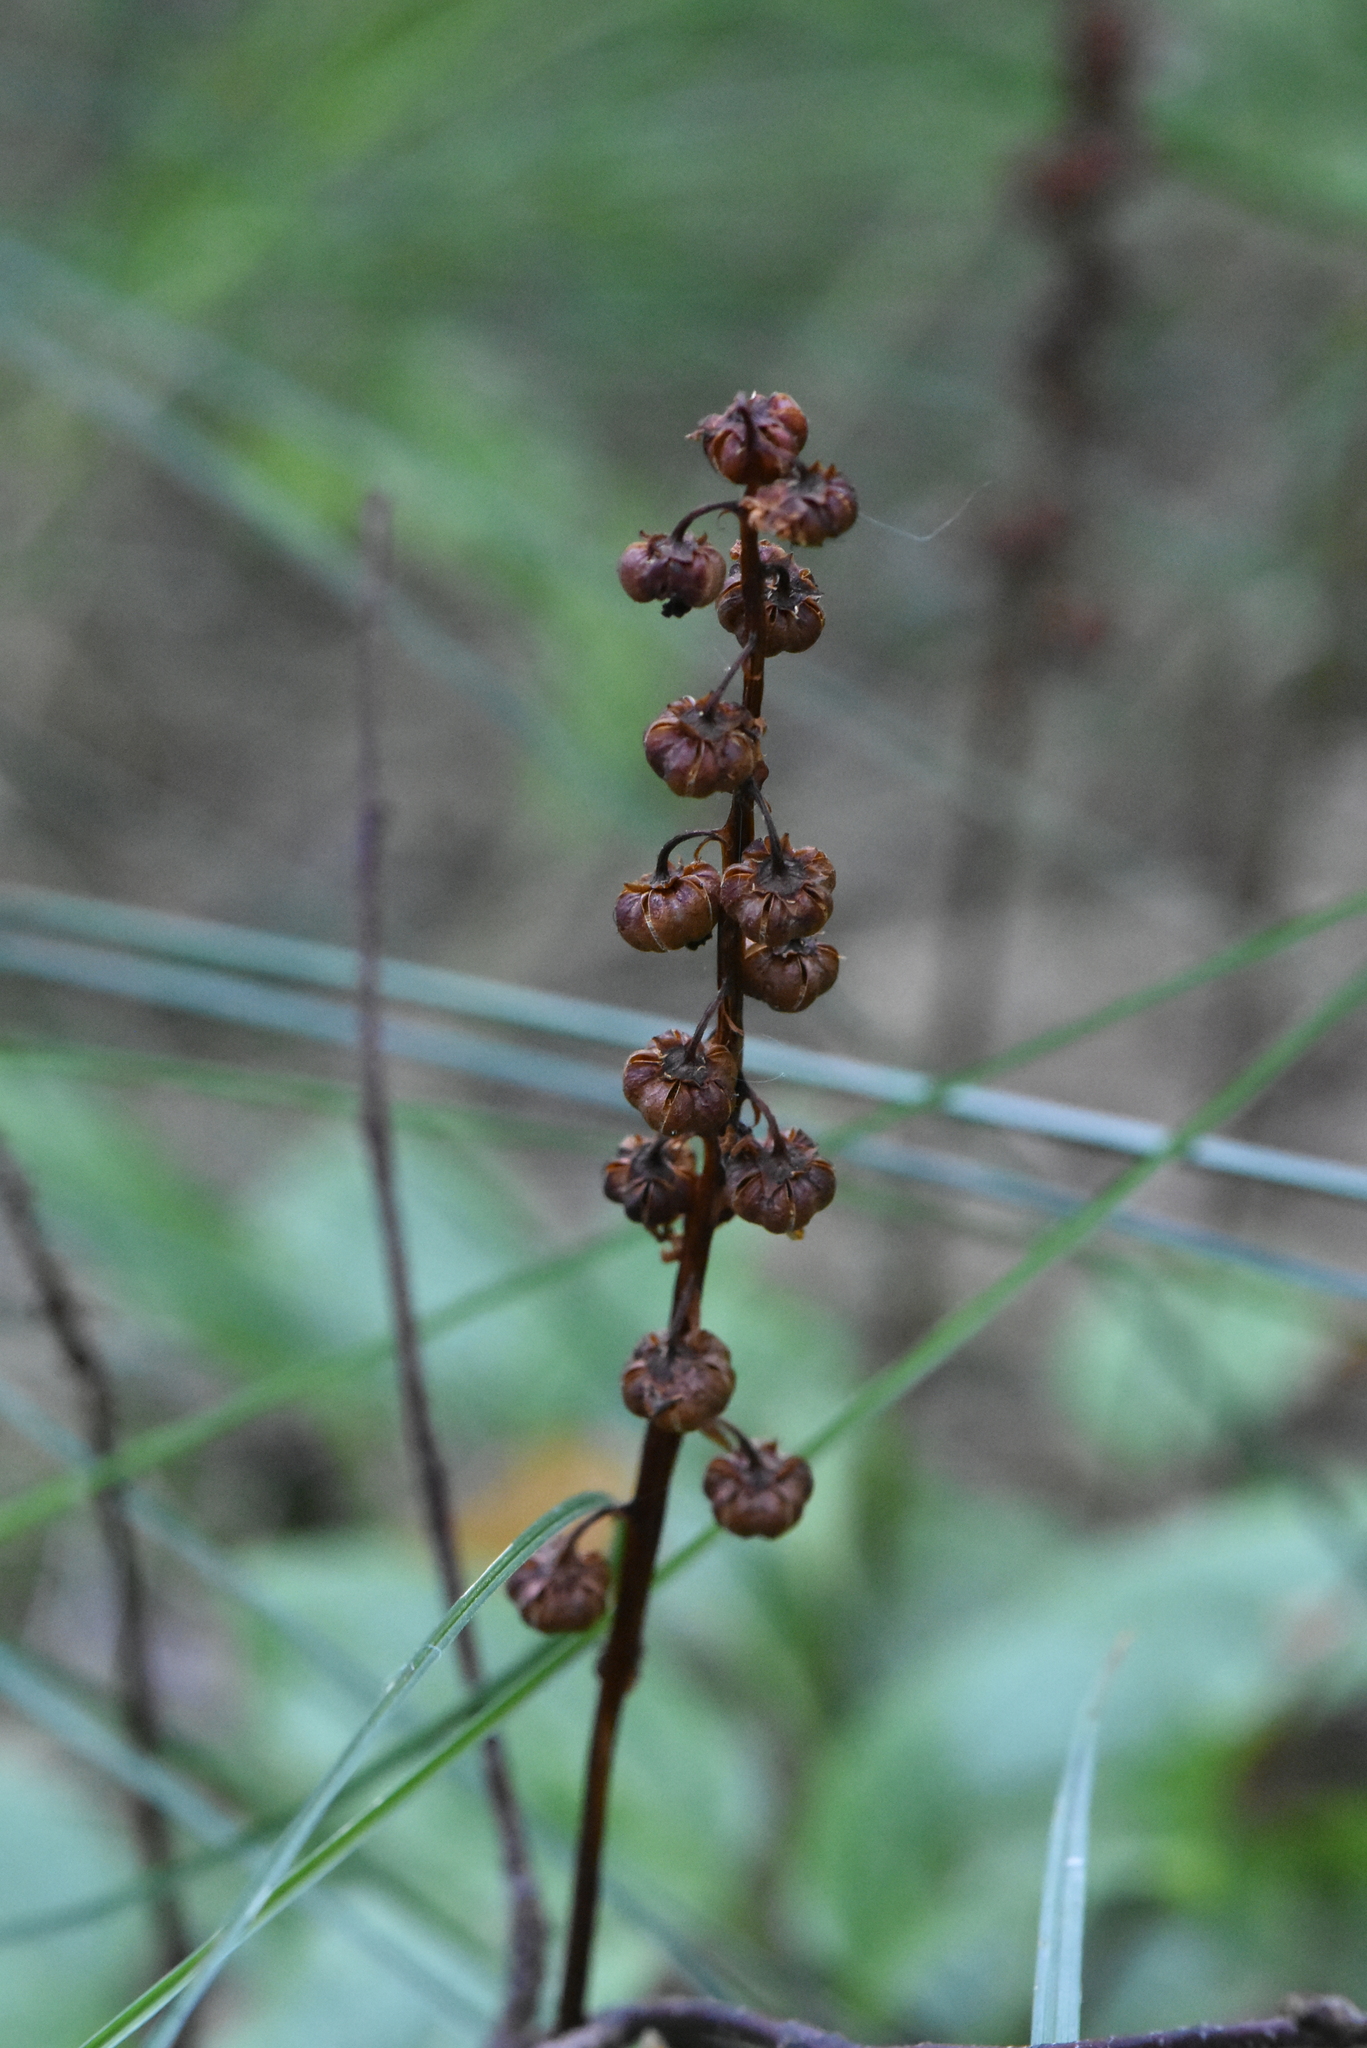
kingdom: Plantae
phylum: Tracheophyta
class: Magnoliopsida
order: Ericales
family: Ericaceae
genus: Pyrola
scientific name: Pyrola minor
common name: Common wintergreen
